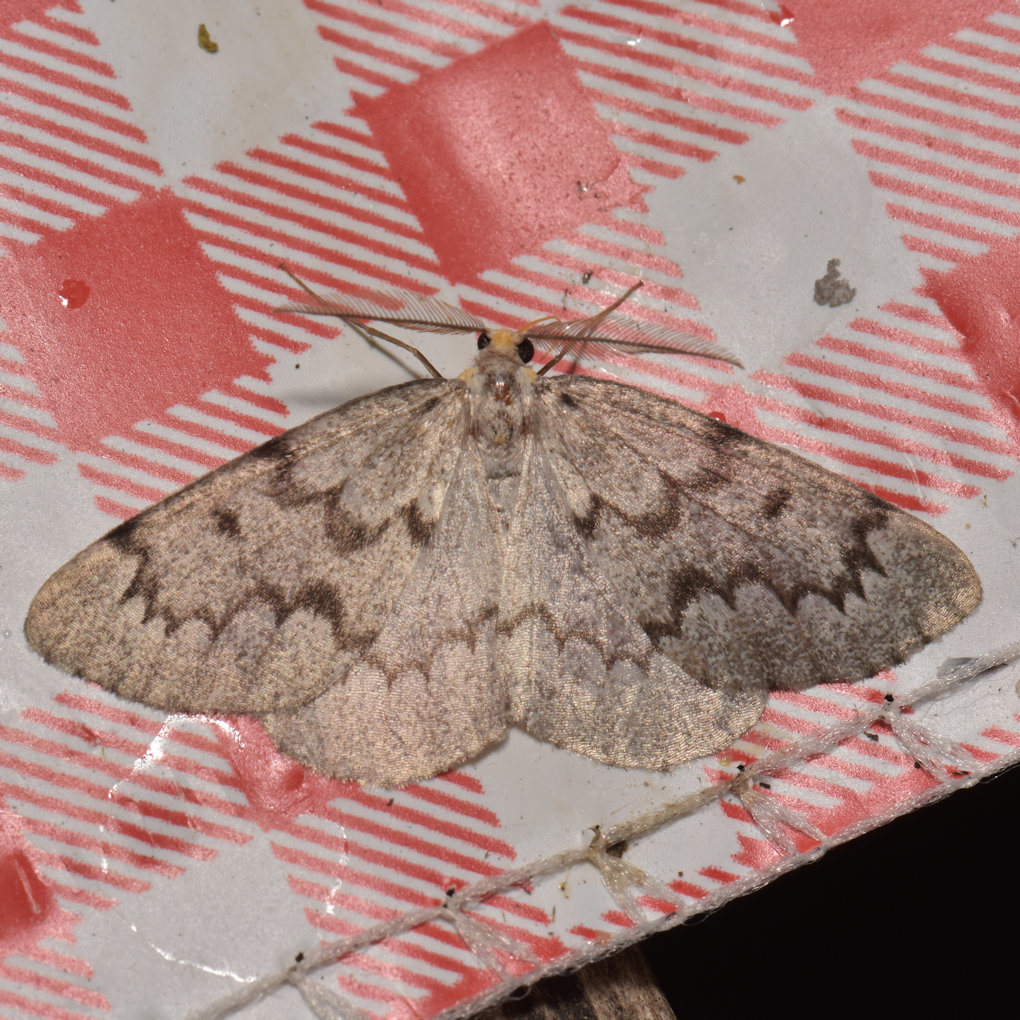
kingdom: Animalia
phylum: Arthropoda
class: Insecta
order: Lepidoptera
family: Geometridae
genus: Nepytia
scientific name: Nepytia canosaria
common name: False hemlock looper
